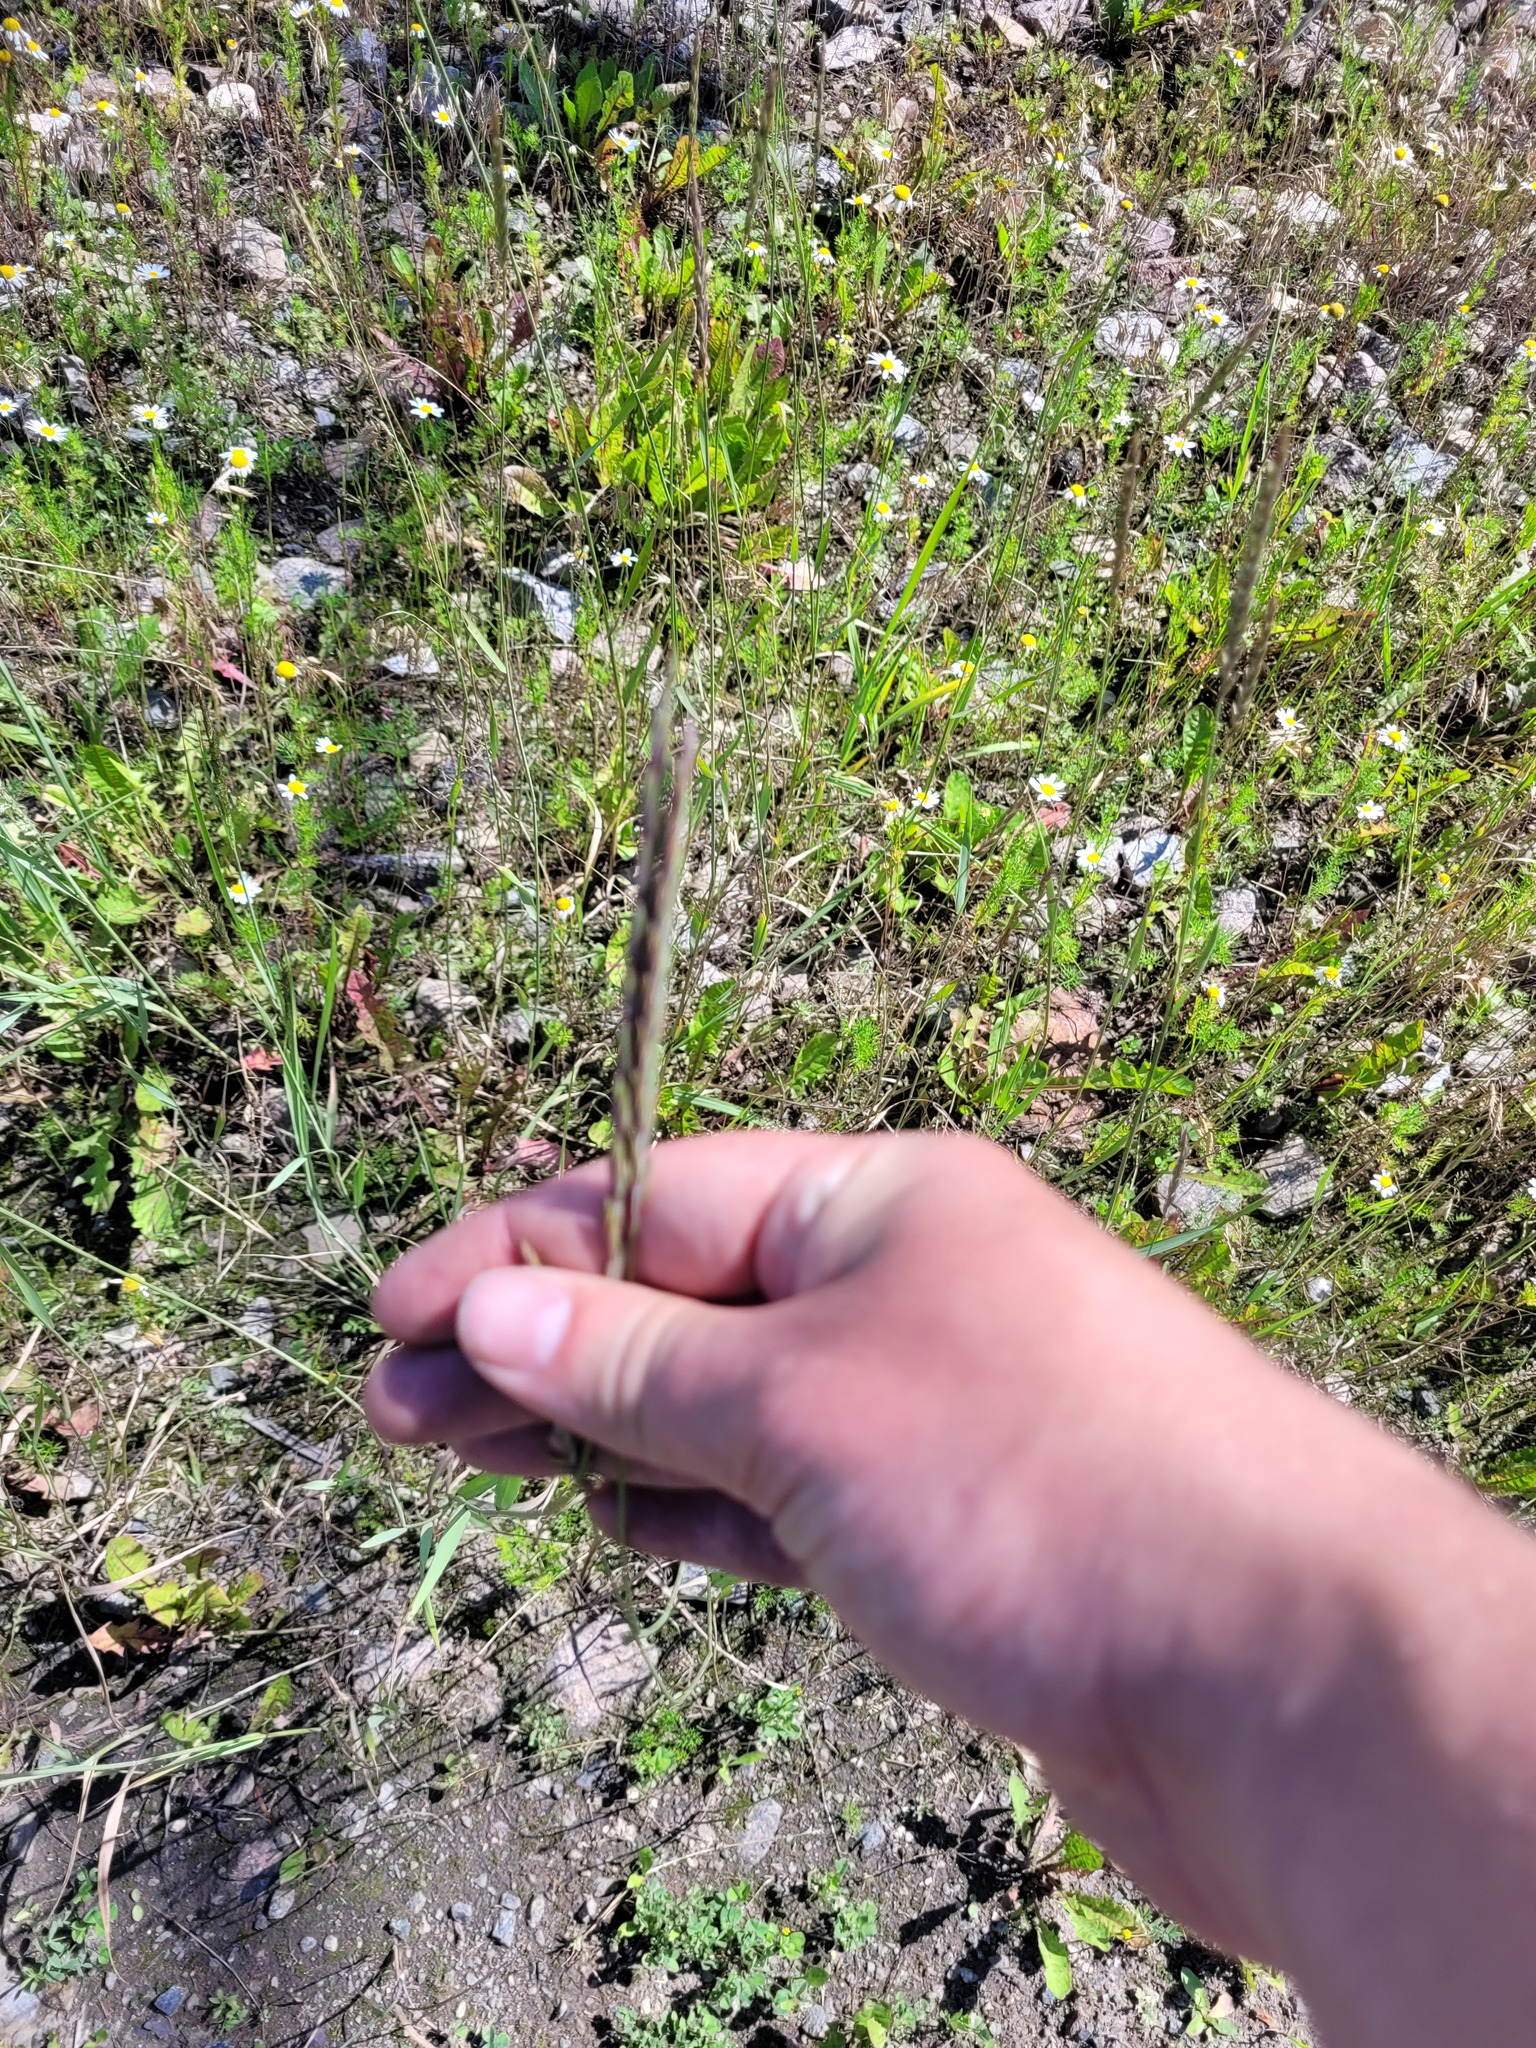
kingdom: Plantae
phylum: Tracheophyta
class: Liliopsida
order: Poales
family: Poaceae
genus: Elymus
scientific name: Elymus repens
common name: Quackgrass
